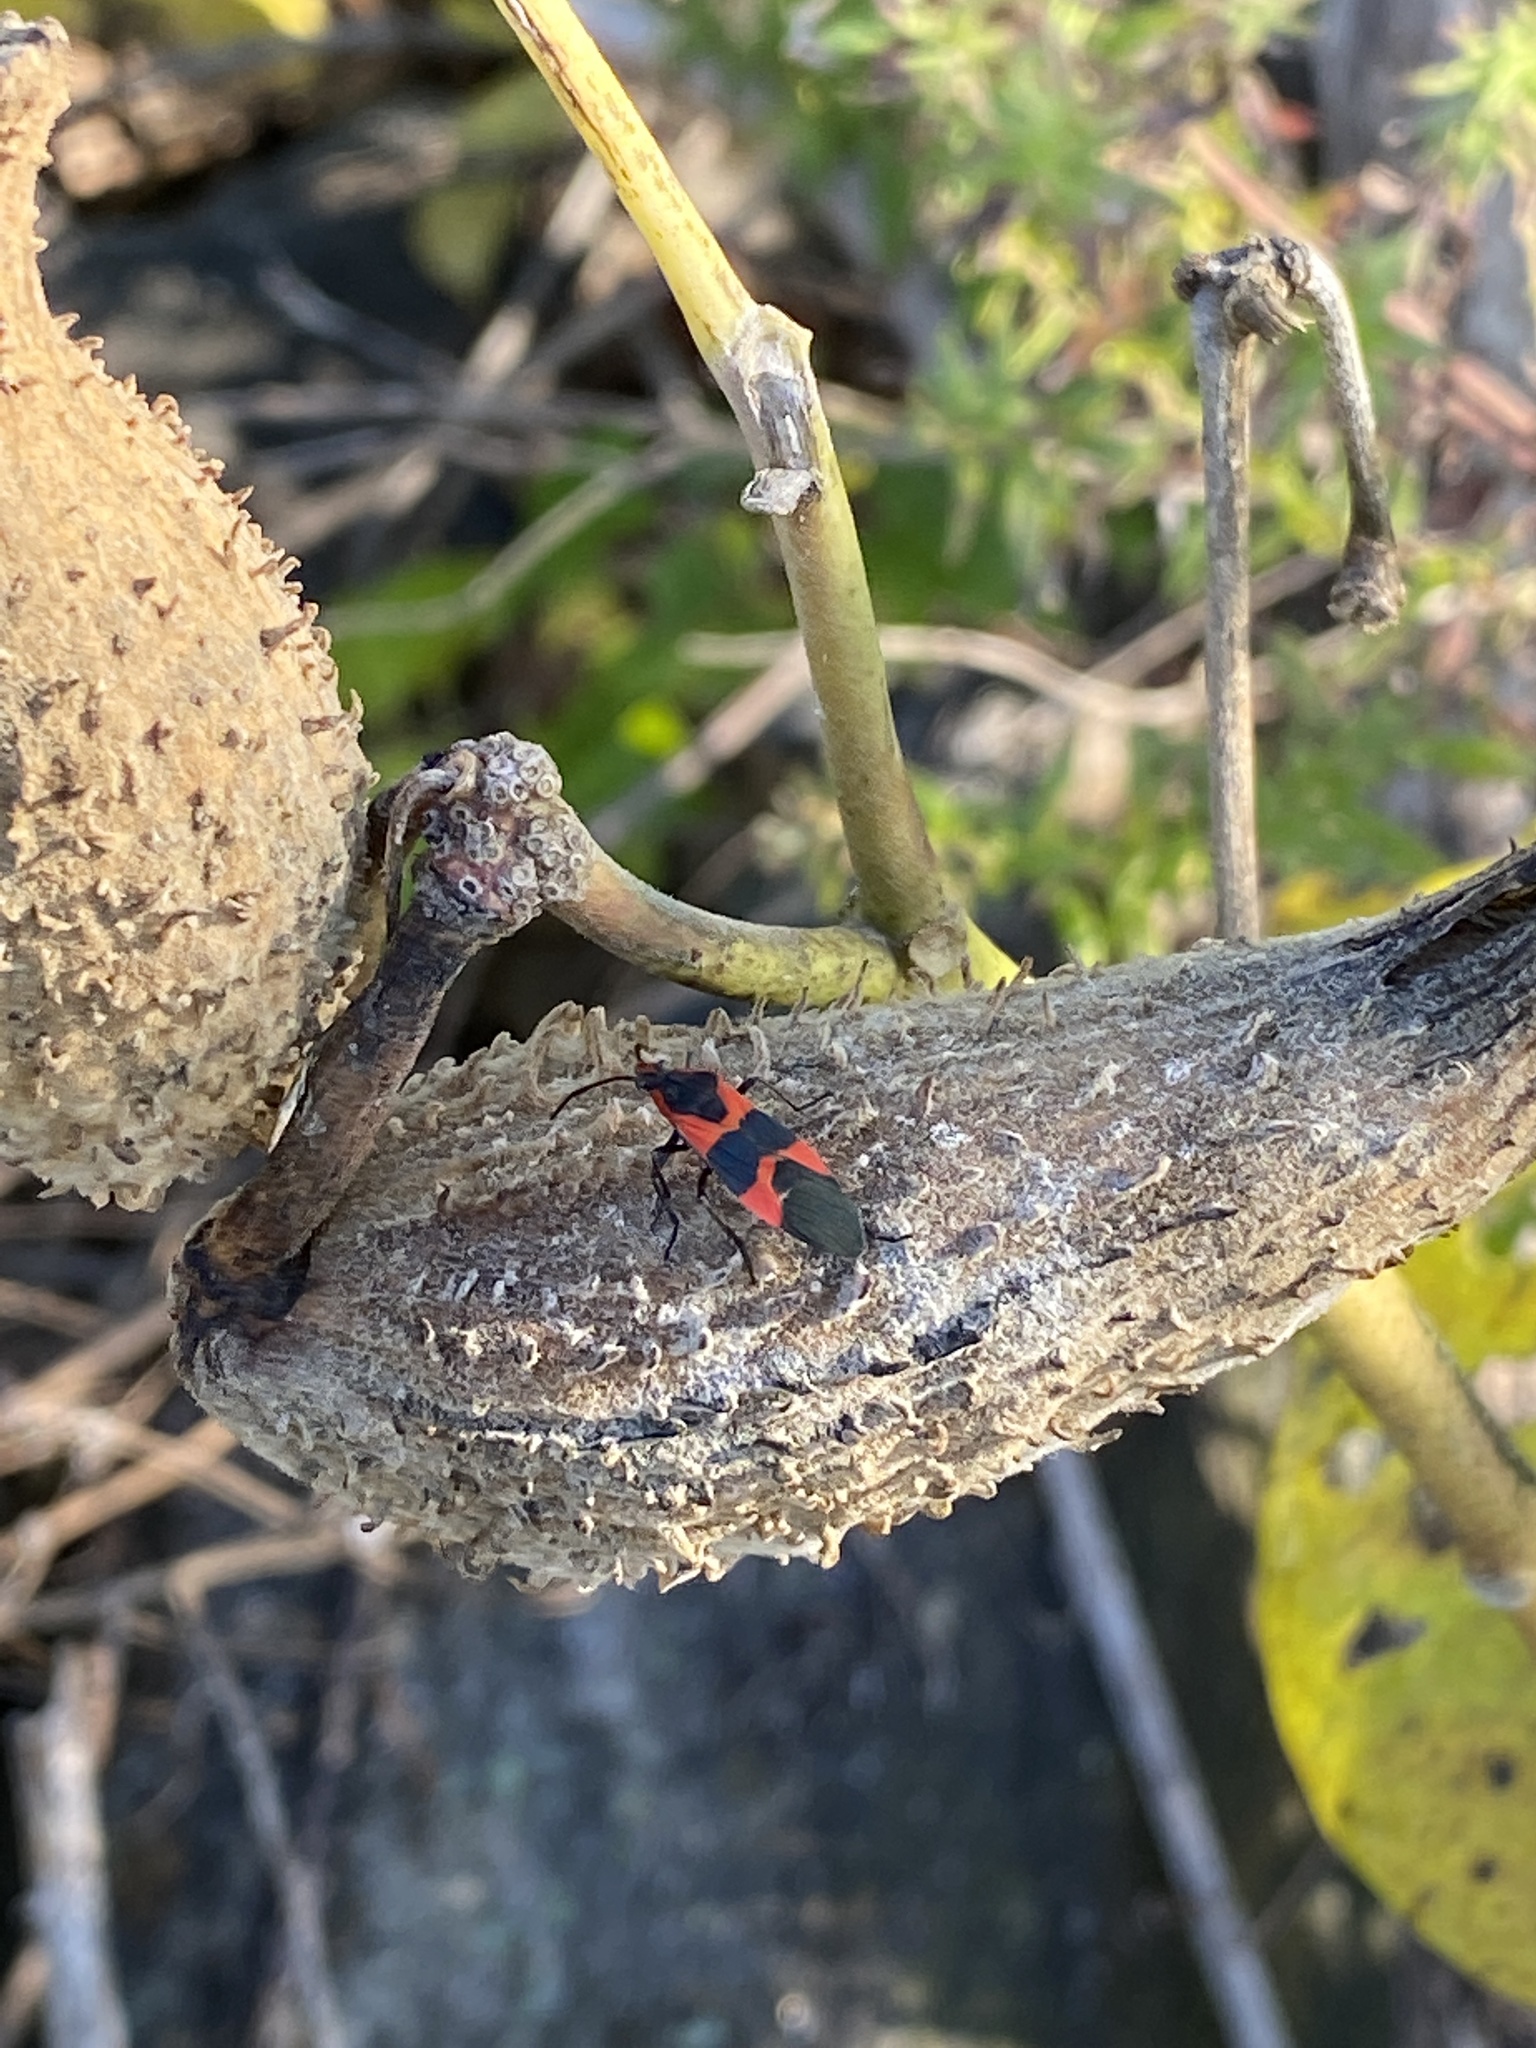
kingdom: Animalia
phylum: Arthropoda
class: Insecta
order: Hemiptera
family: Lygaeidae
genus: Oncopeltus
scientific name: Oncopeltus fasciatus
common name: Large milkweed bug
